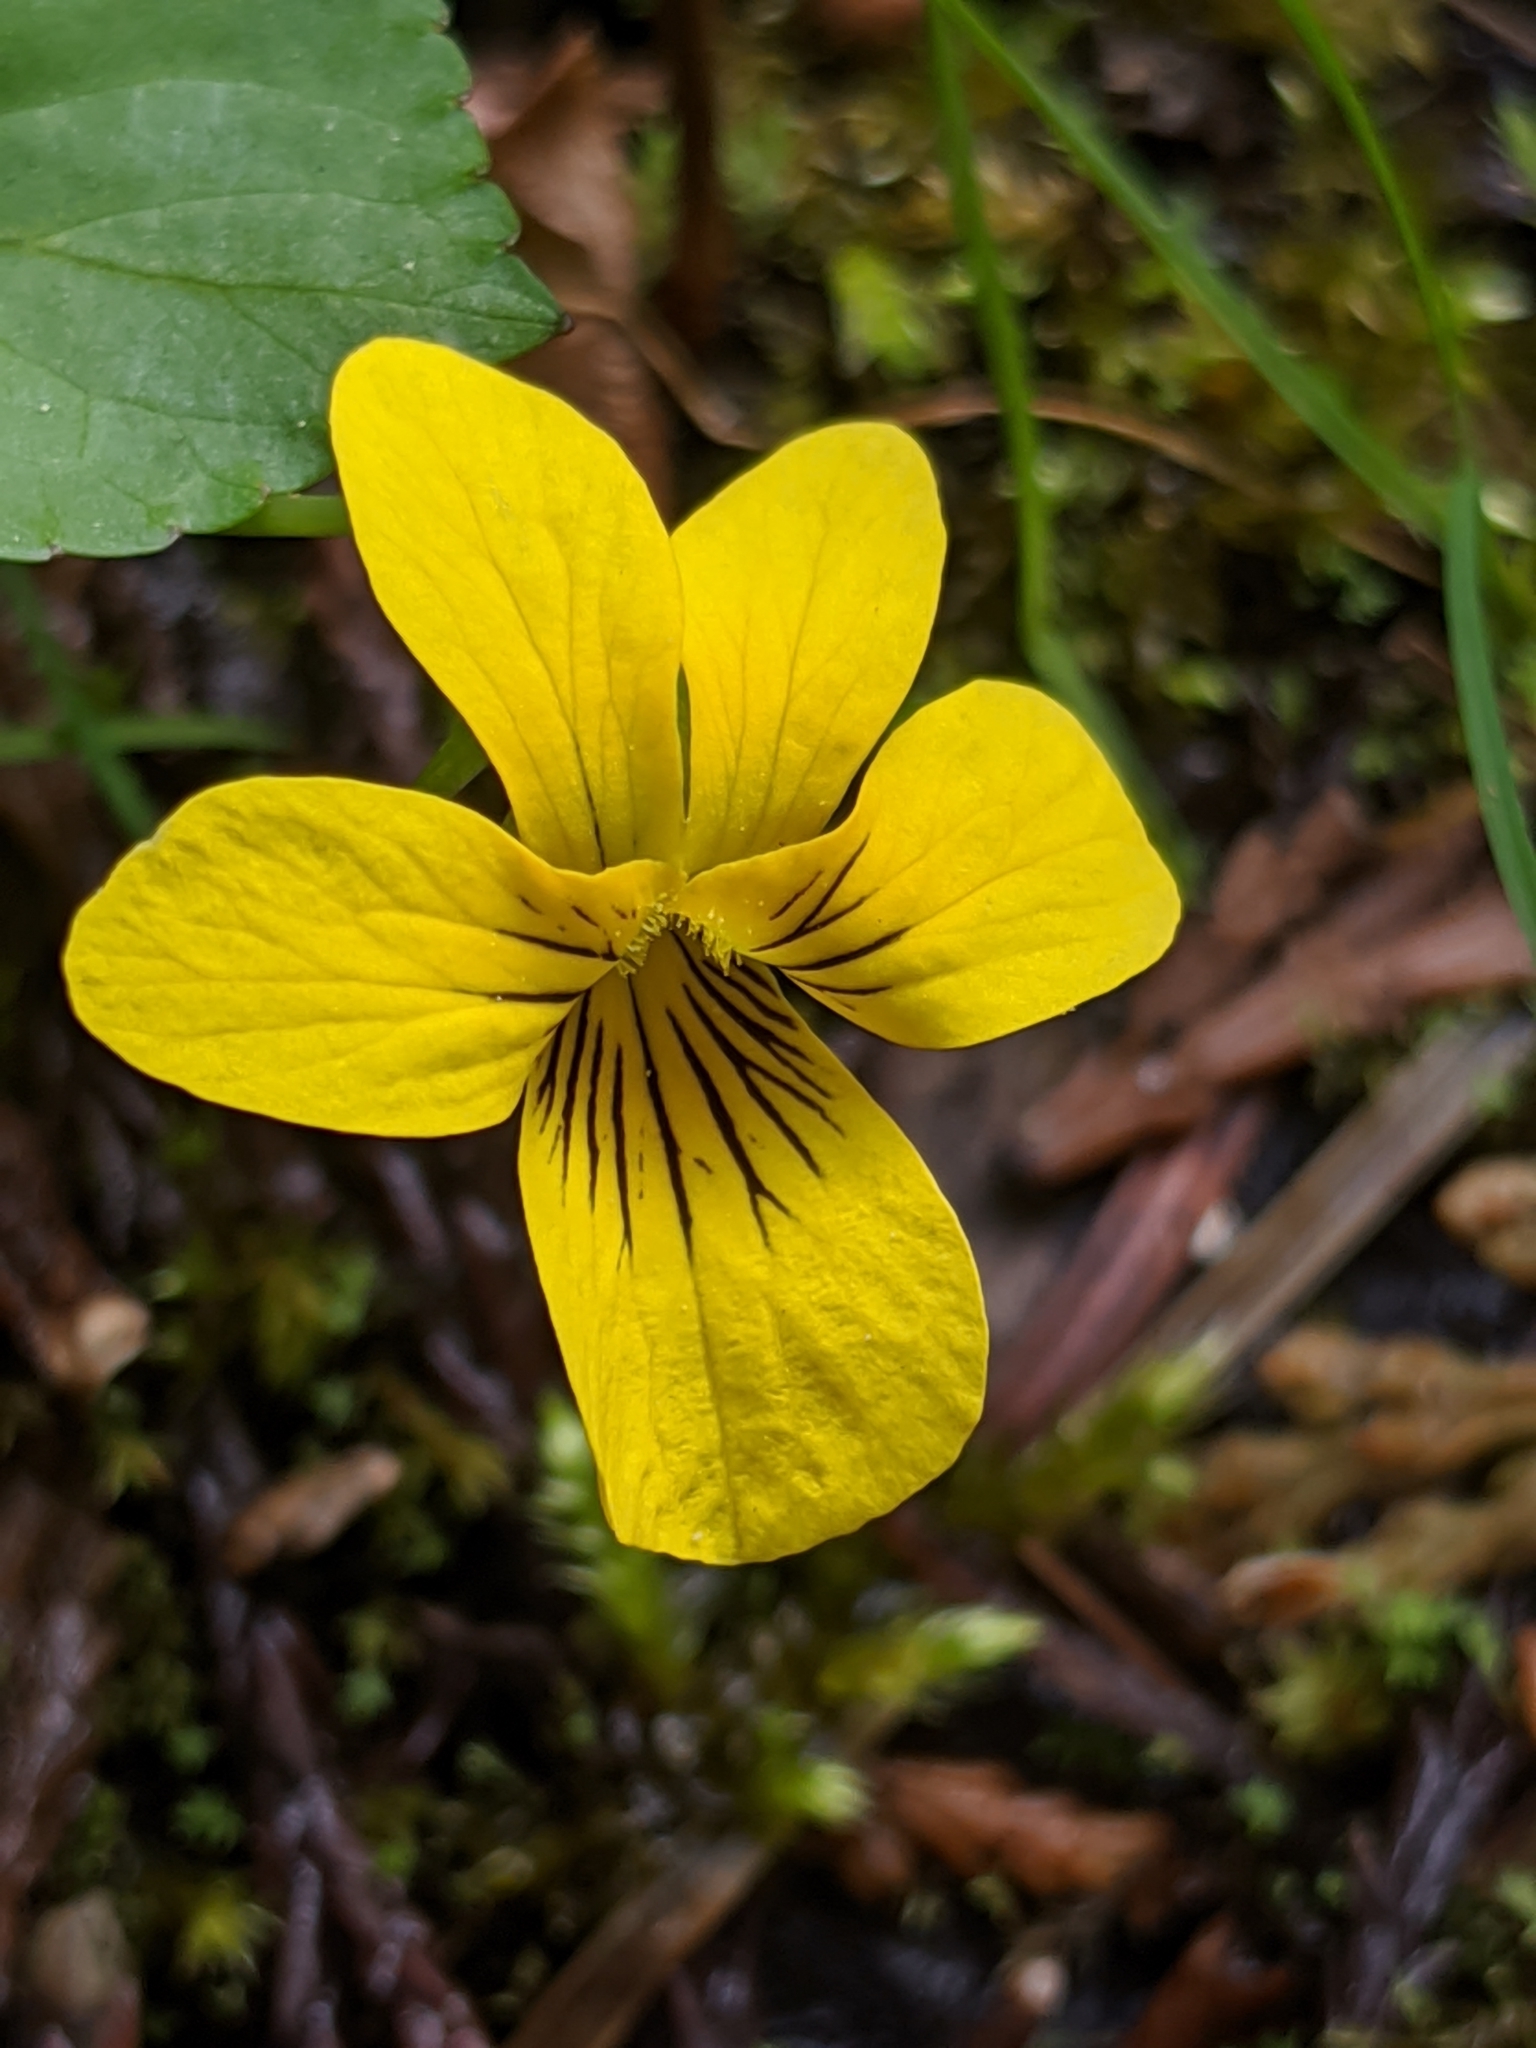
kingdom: Plantae
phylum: Tracheophyta
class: Magnoliopsida
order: Malpighiales
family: Violaceae
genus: Viola
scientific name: Viola glabella
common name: Stream violet
